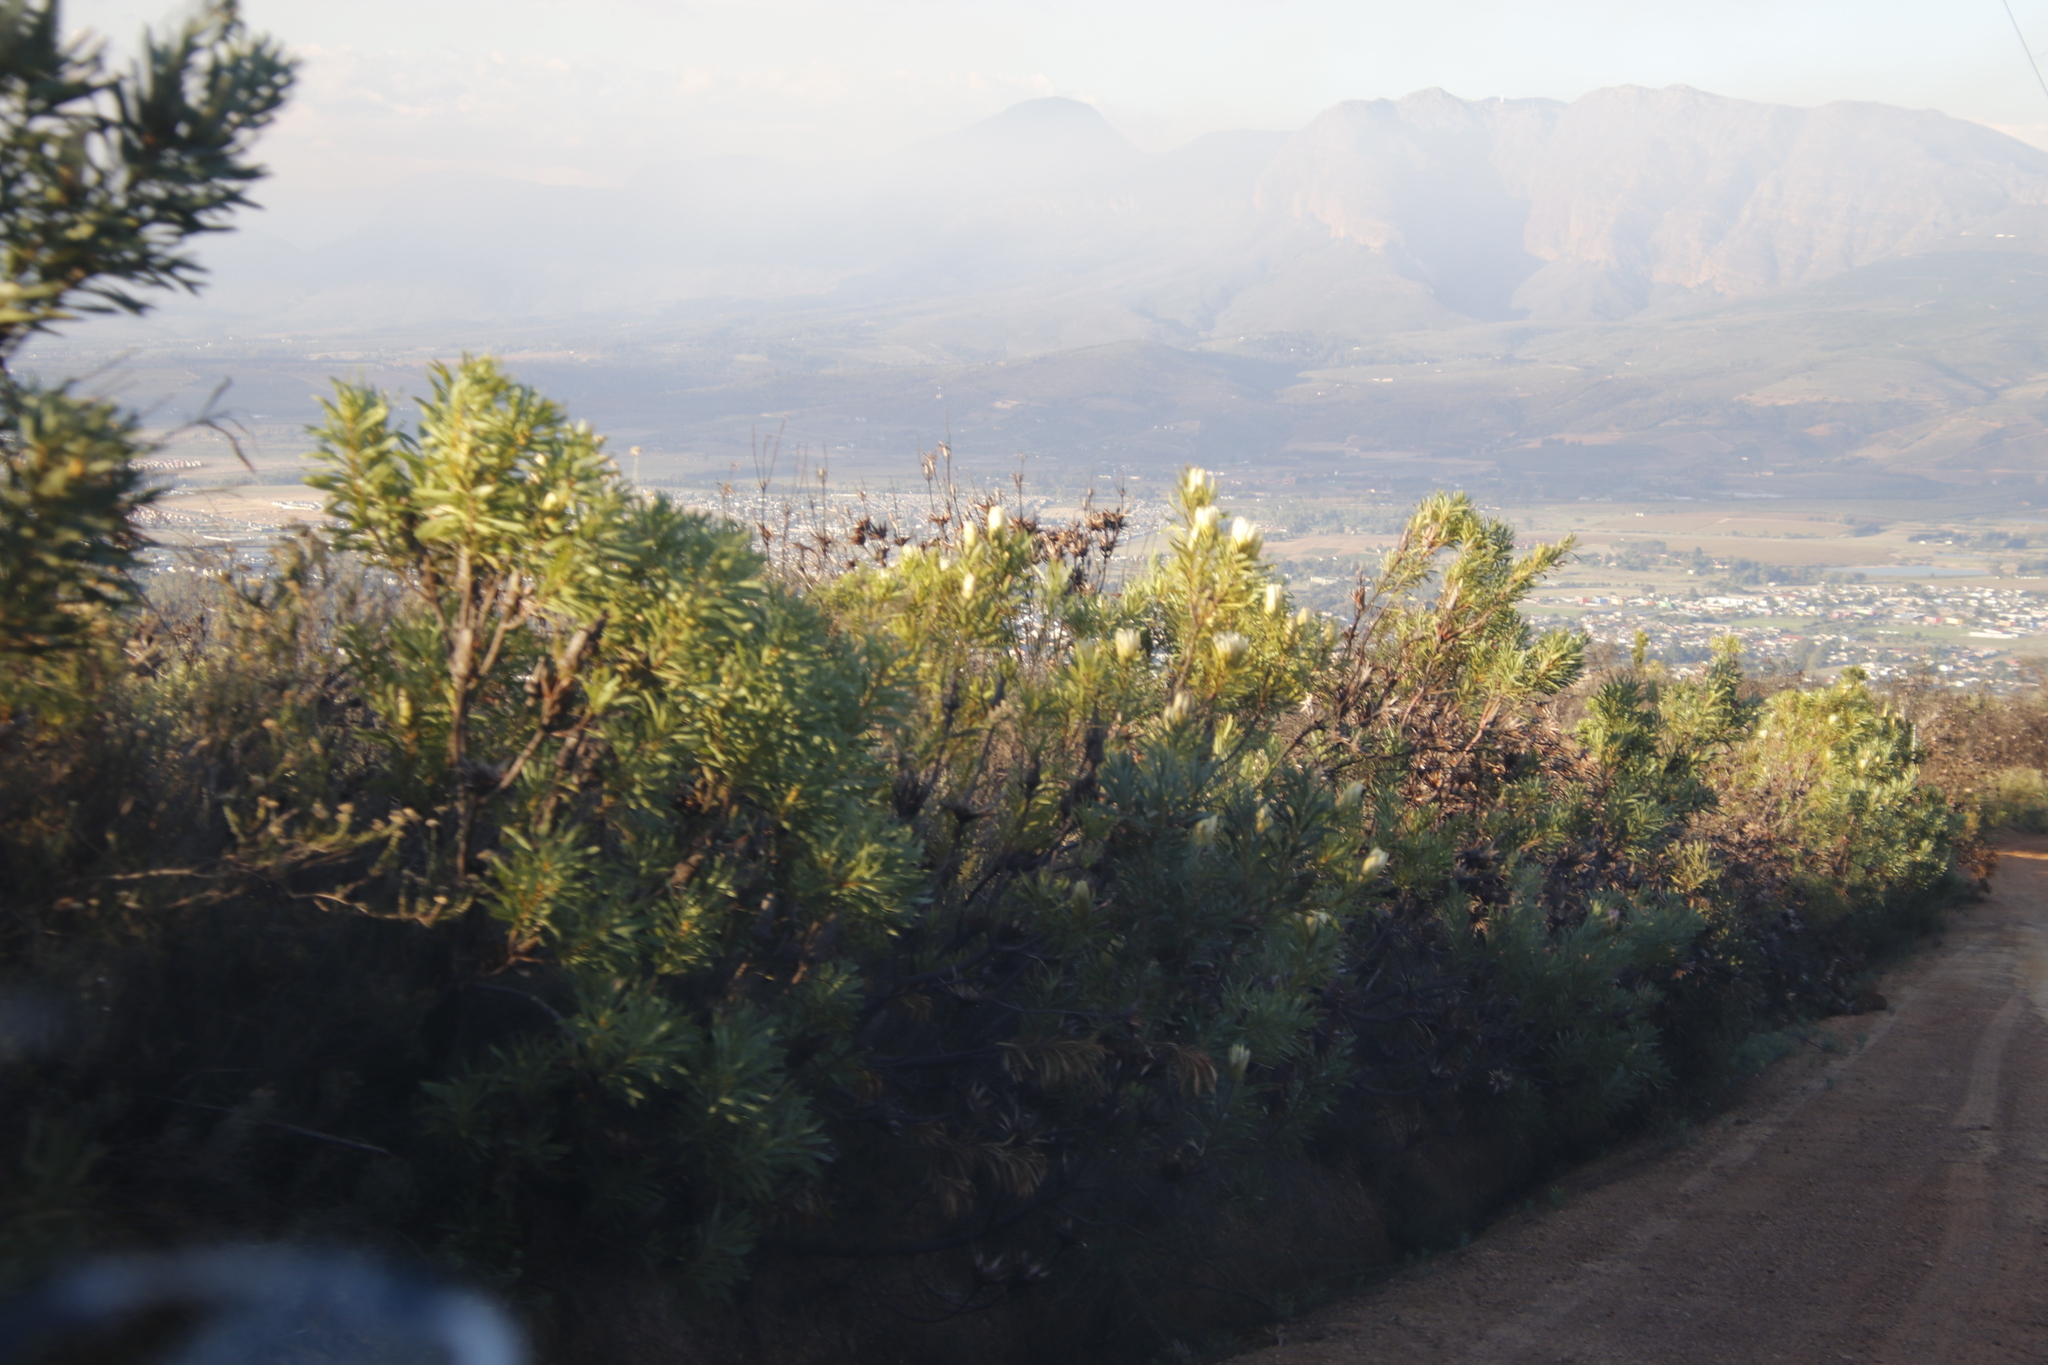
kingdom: Plantae
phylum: Tracheophyta
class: Magnoliopsida
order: Proteales
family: Proteaceae
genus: Protea
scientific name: Protea repens
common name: Sugarbush
